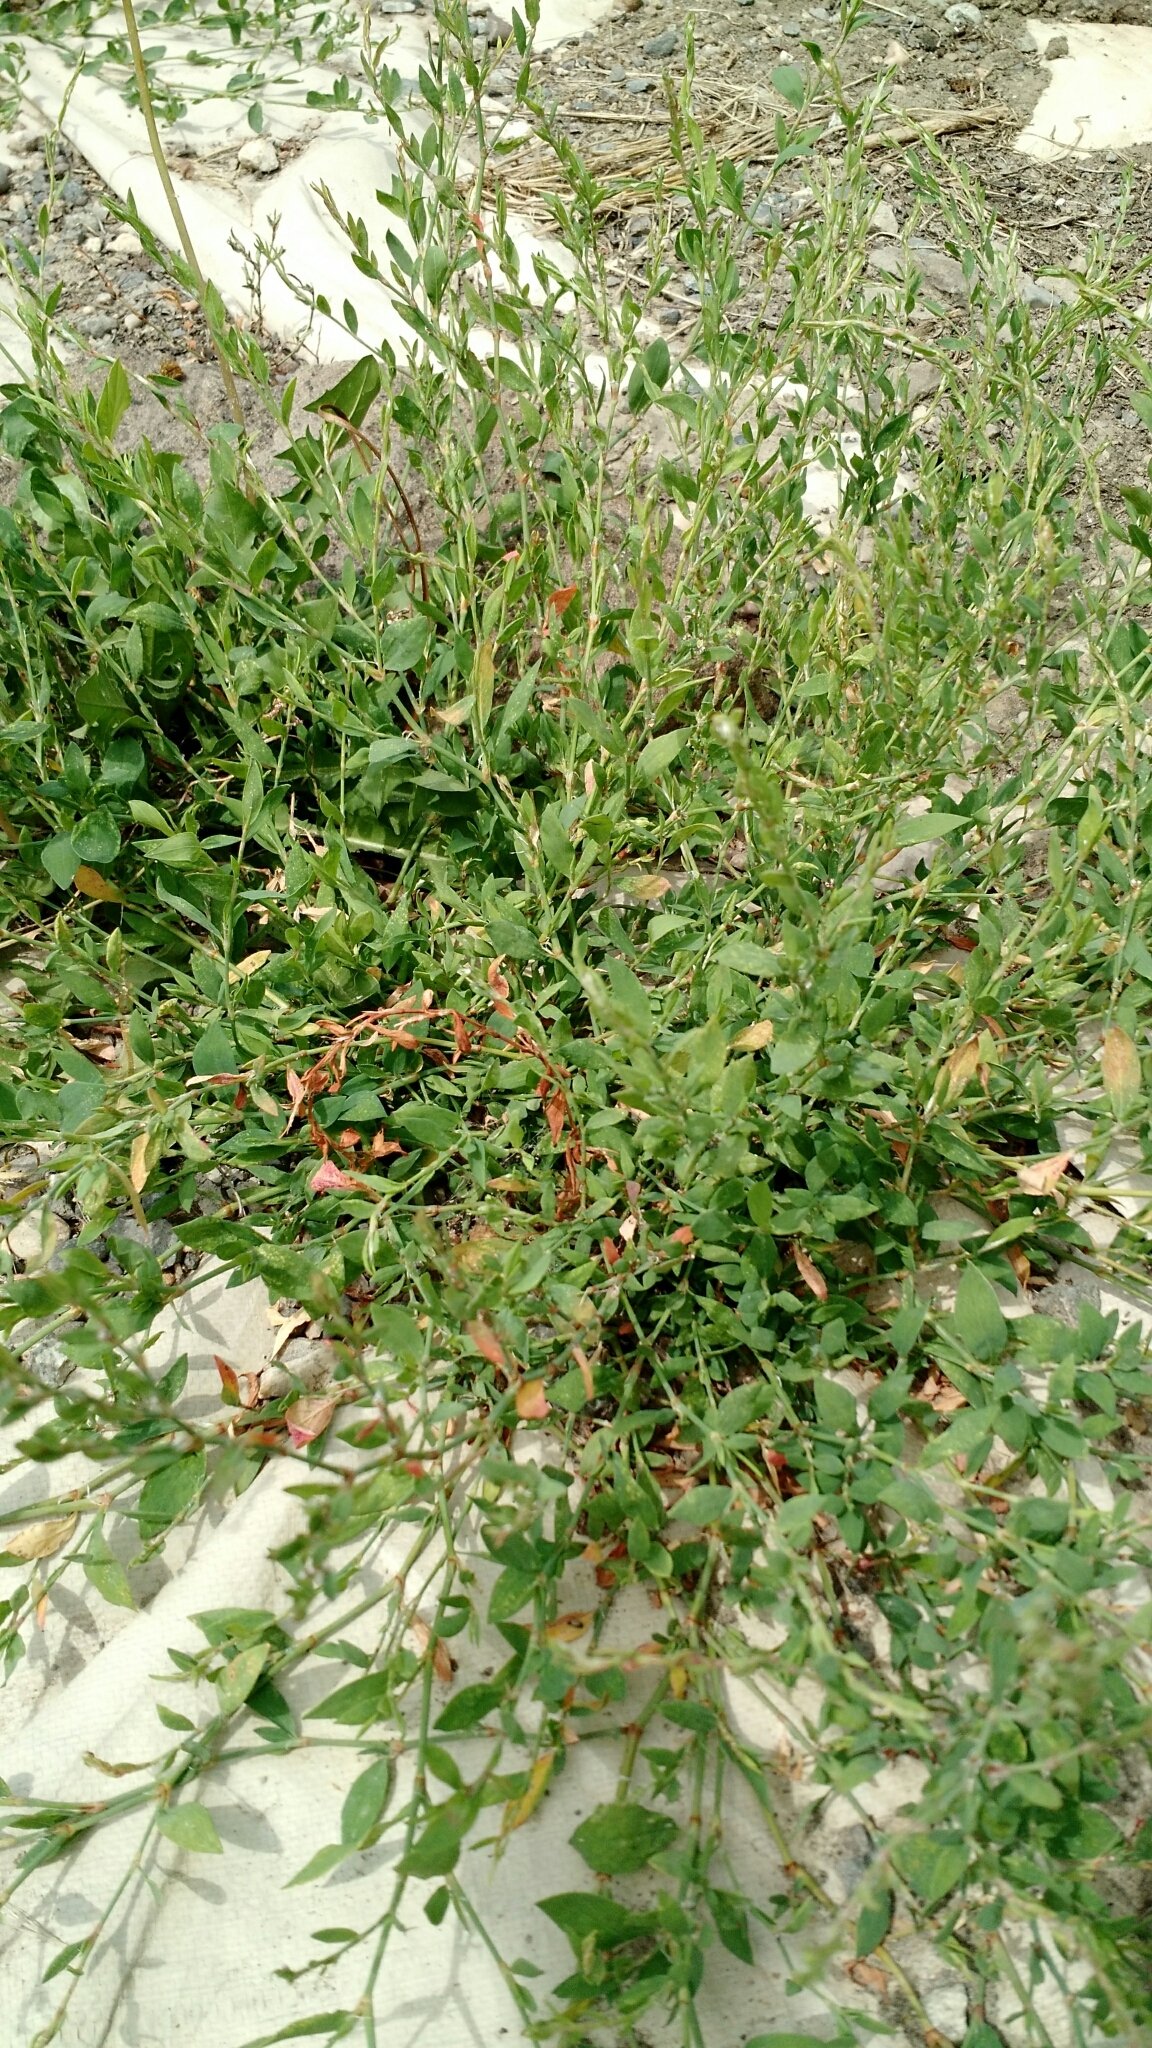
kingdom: Plantae
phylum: Tracheophyta
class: Magnoliopsida
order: Caryophyllales
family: Polygonaceae
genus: Polygonum
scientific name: Polygonum aviculare
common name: Prostrate knotweed
